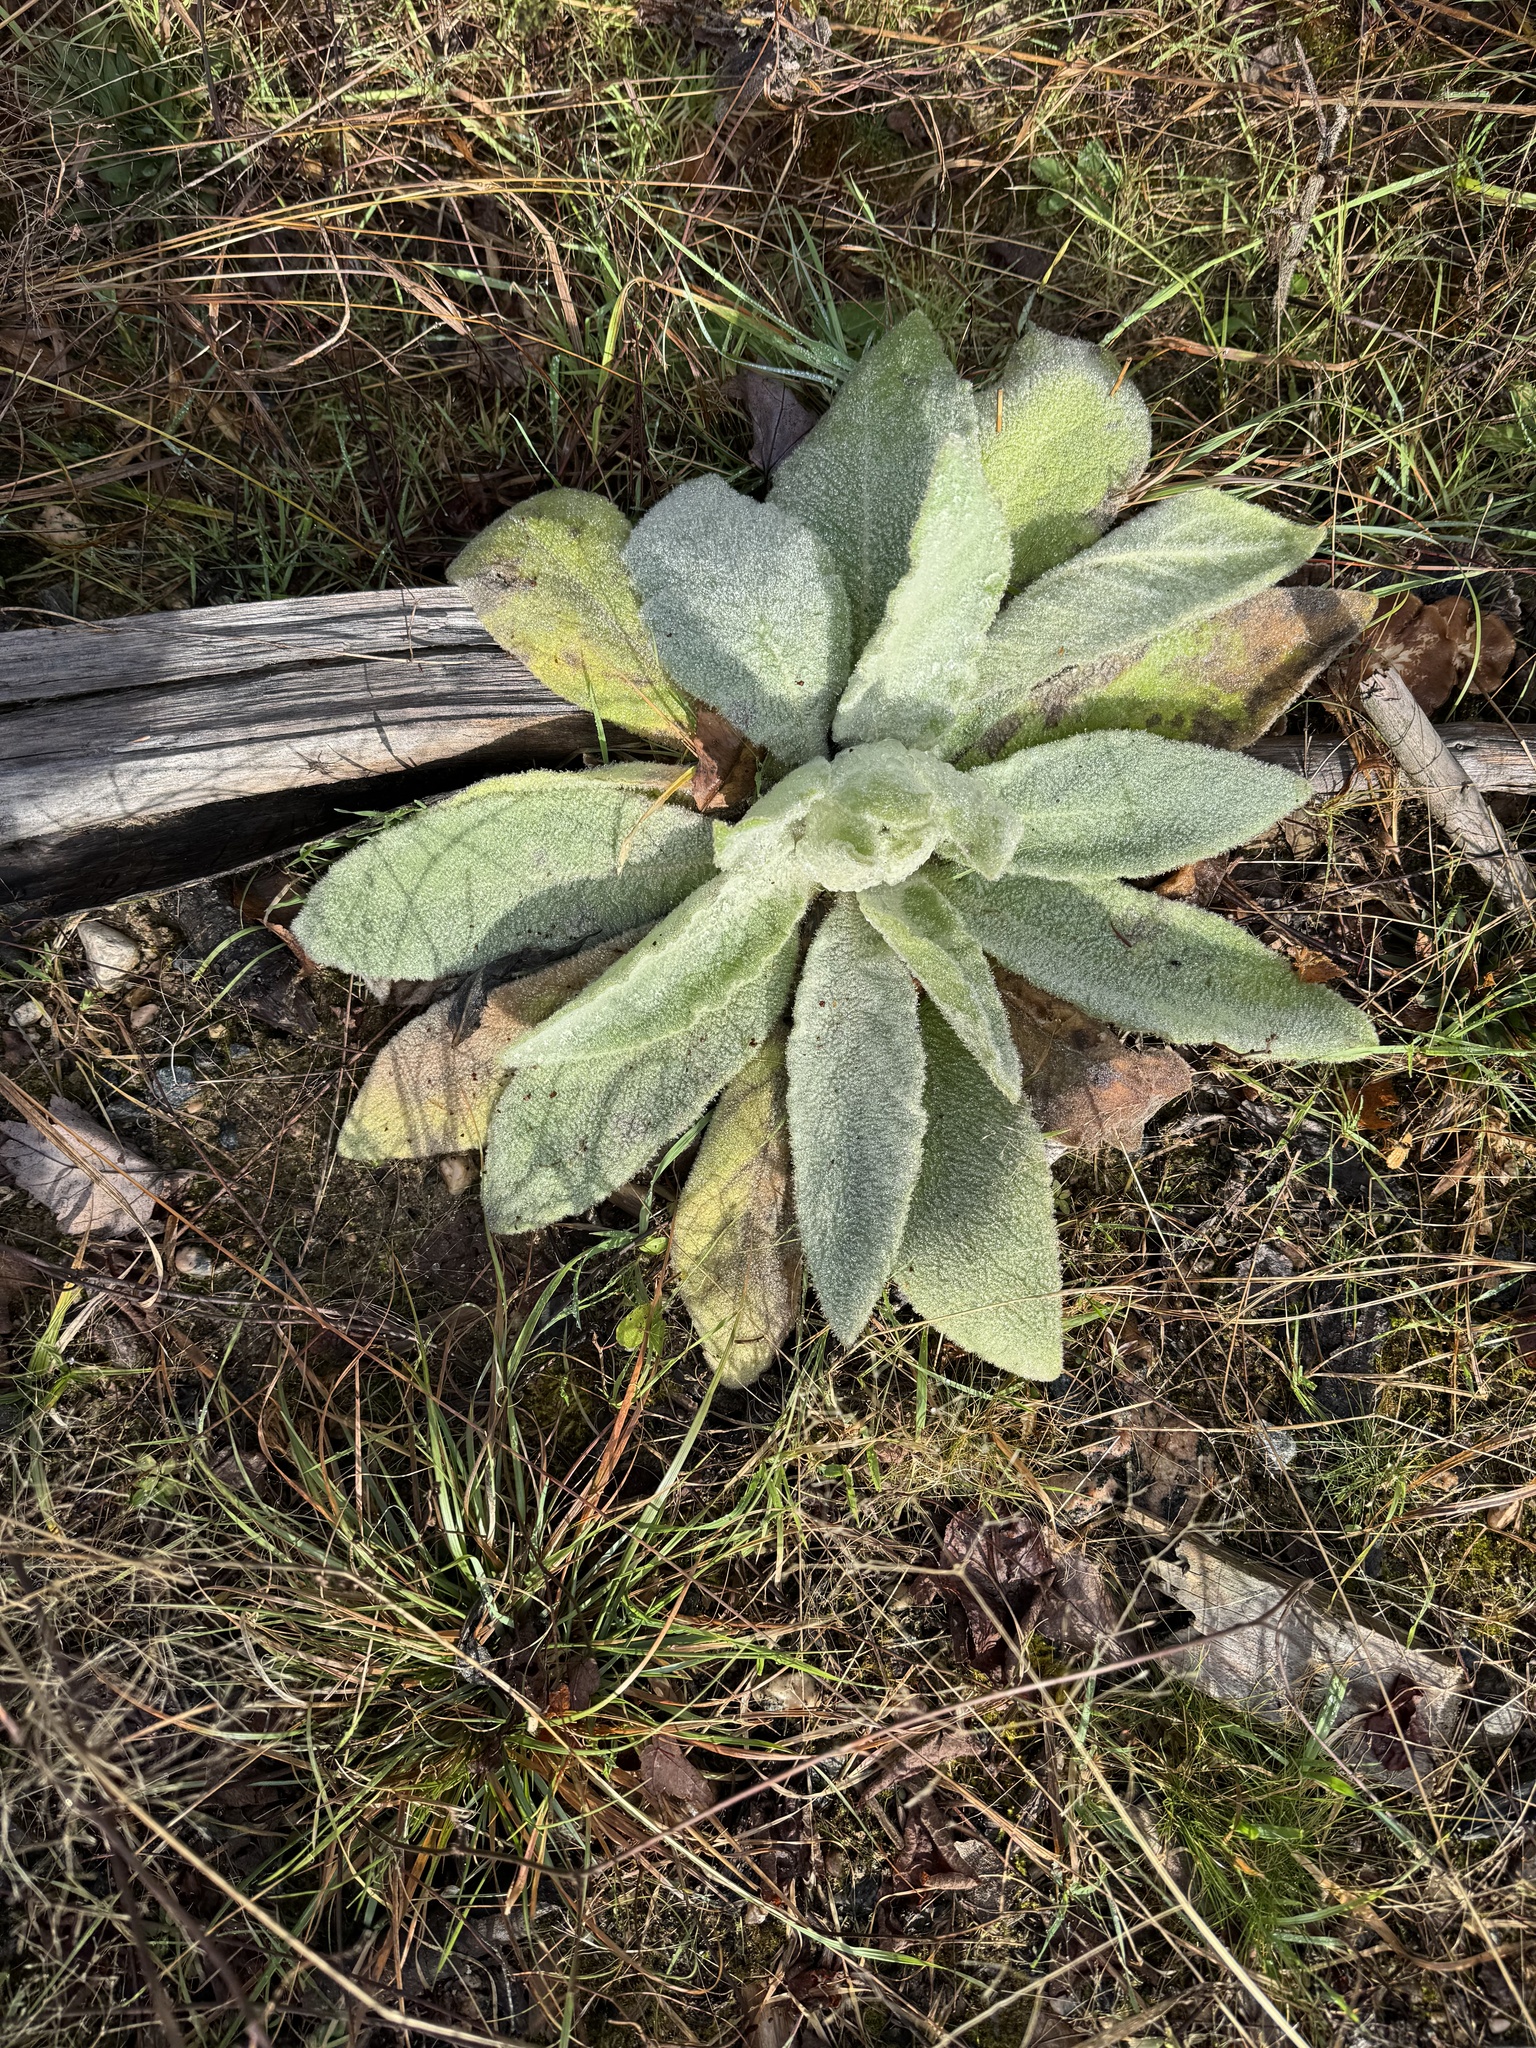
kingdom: Plantae
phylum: Tracheophyta
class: Magnoliopsida
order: Lamiales
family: Scrophulariaceae
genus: Verbascum
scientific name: Verbascum thapsus
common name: Common mullein
